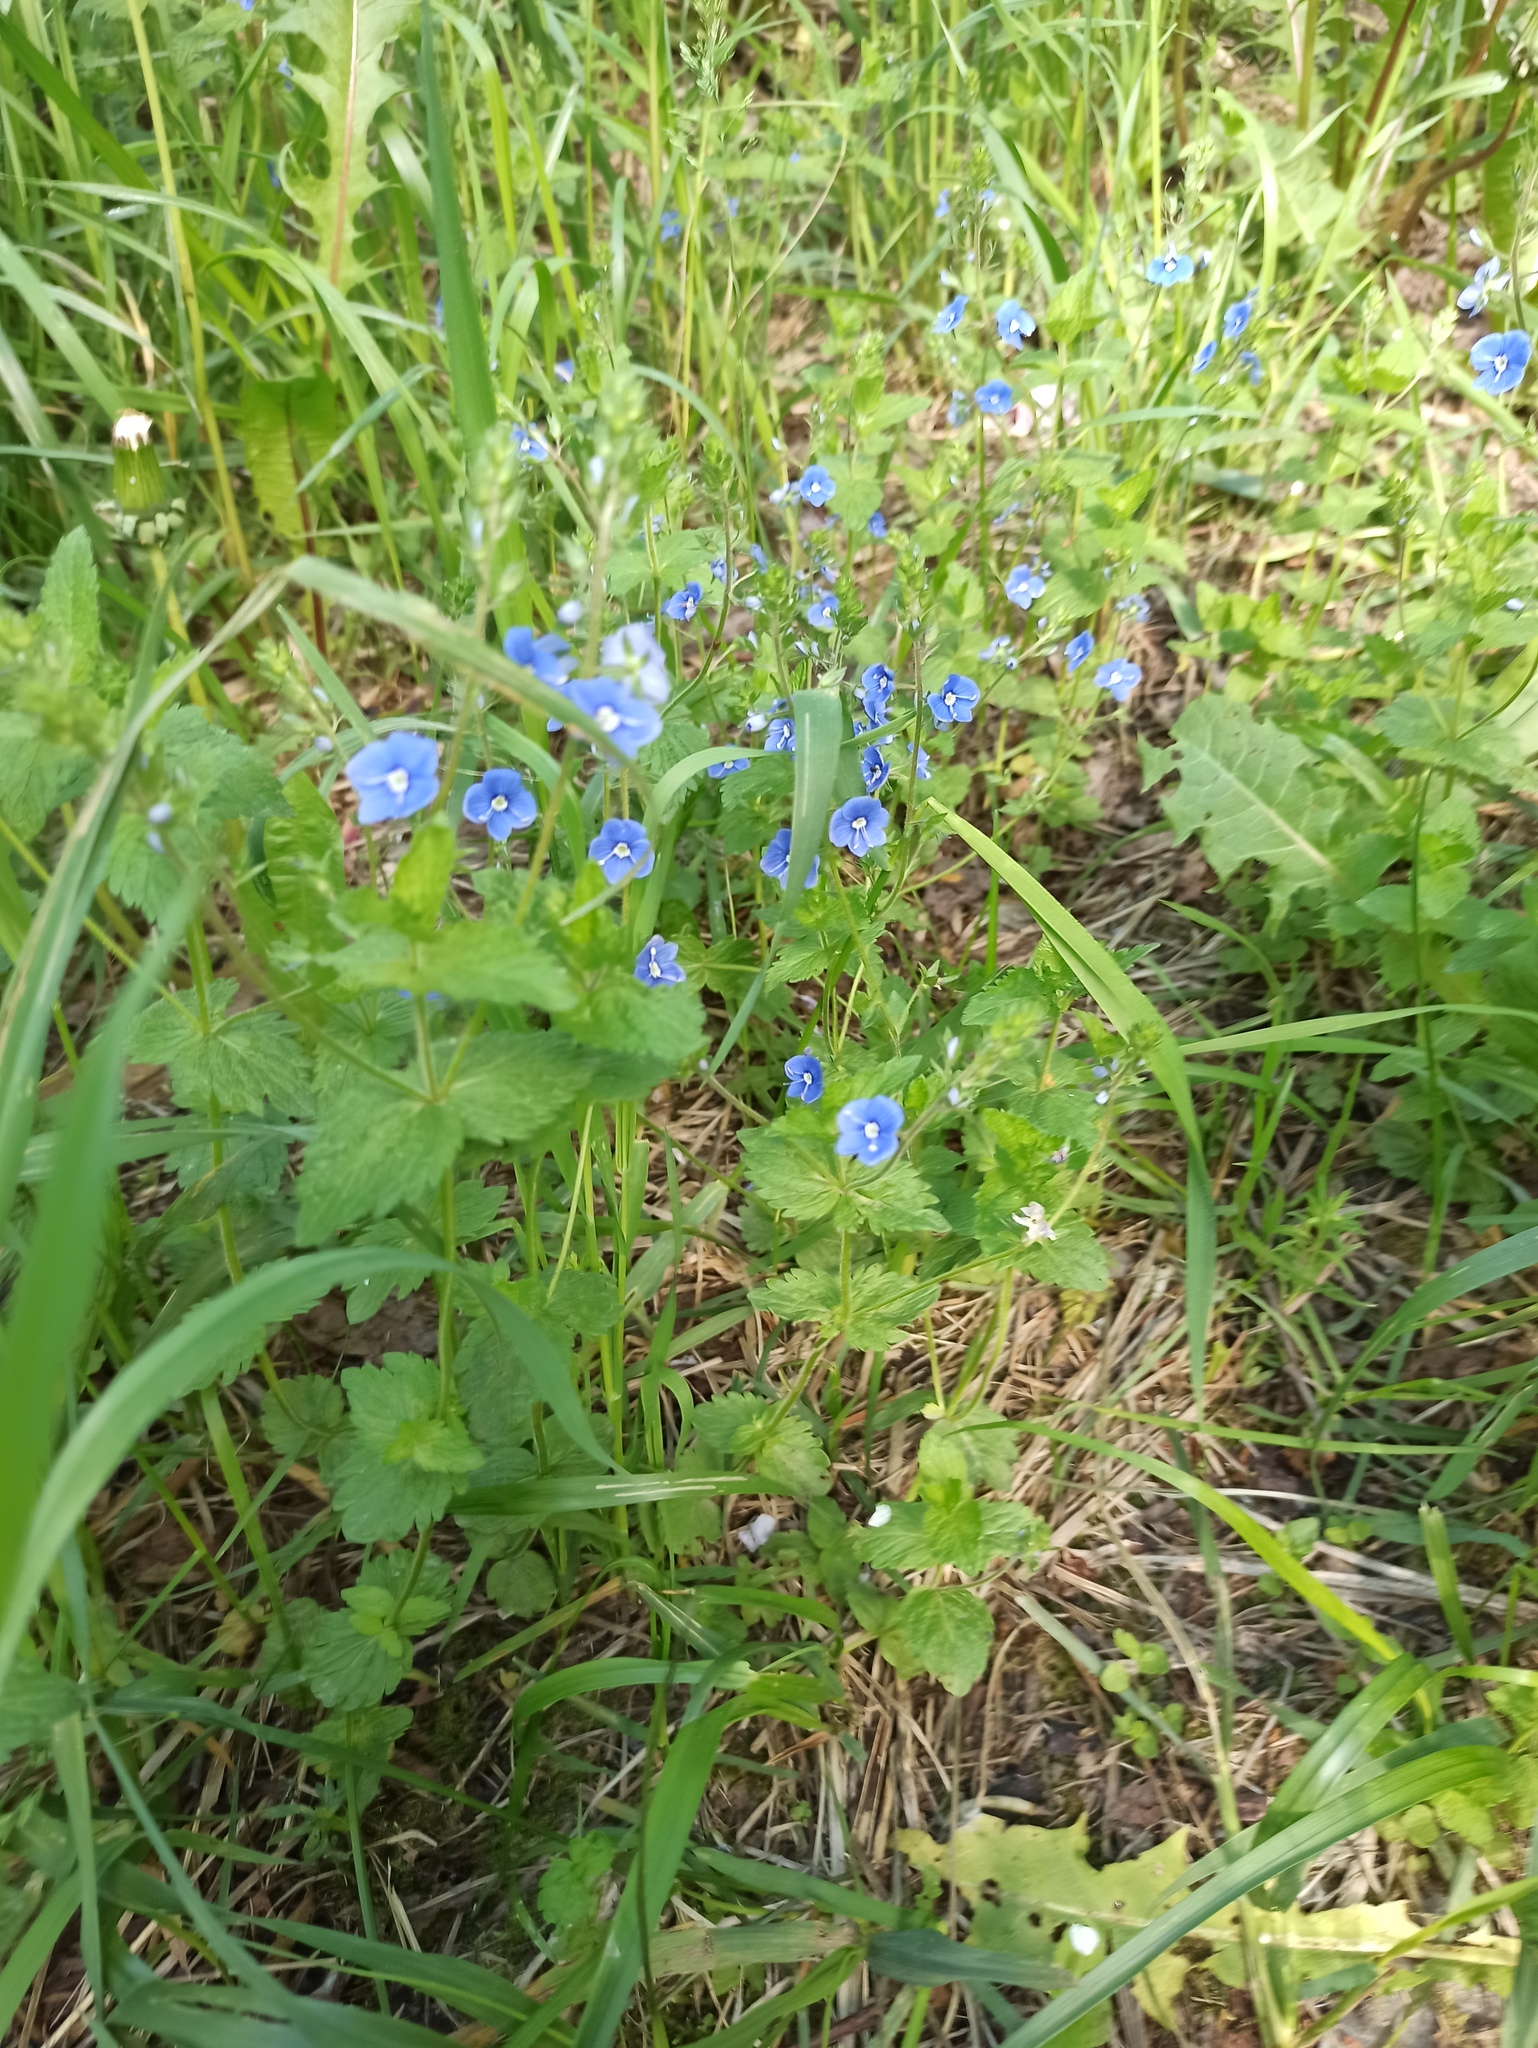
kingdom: Plantae
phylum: Tracheophyta
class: Magnoliopsida
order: Lamiales
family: Plantaginaceae
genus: Veronica
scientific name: Veronica chamaedrys
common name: Germander speedwell
